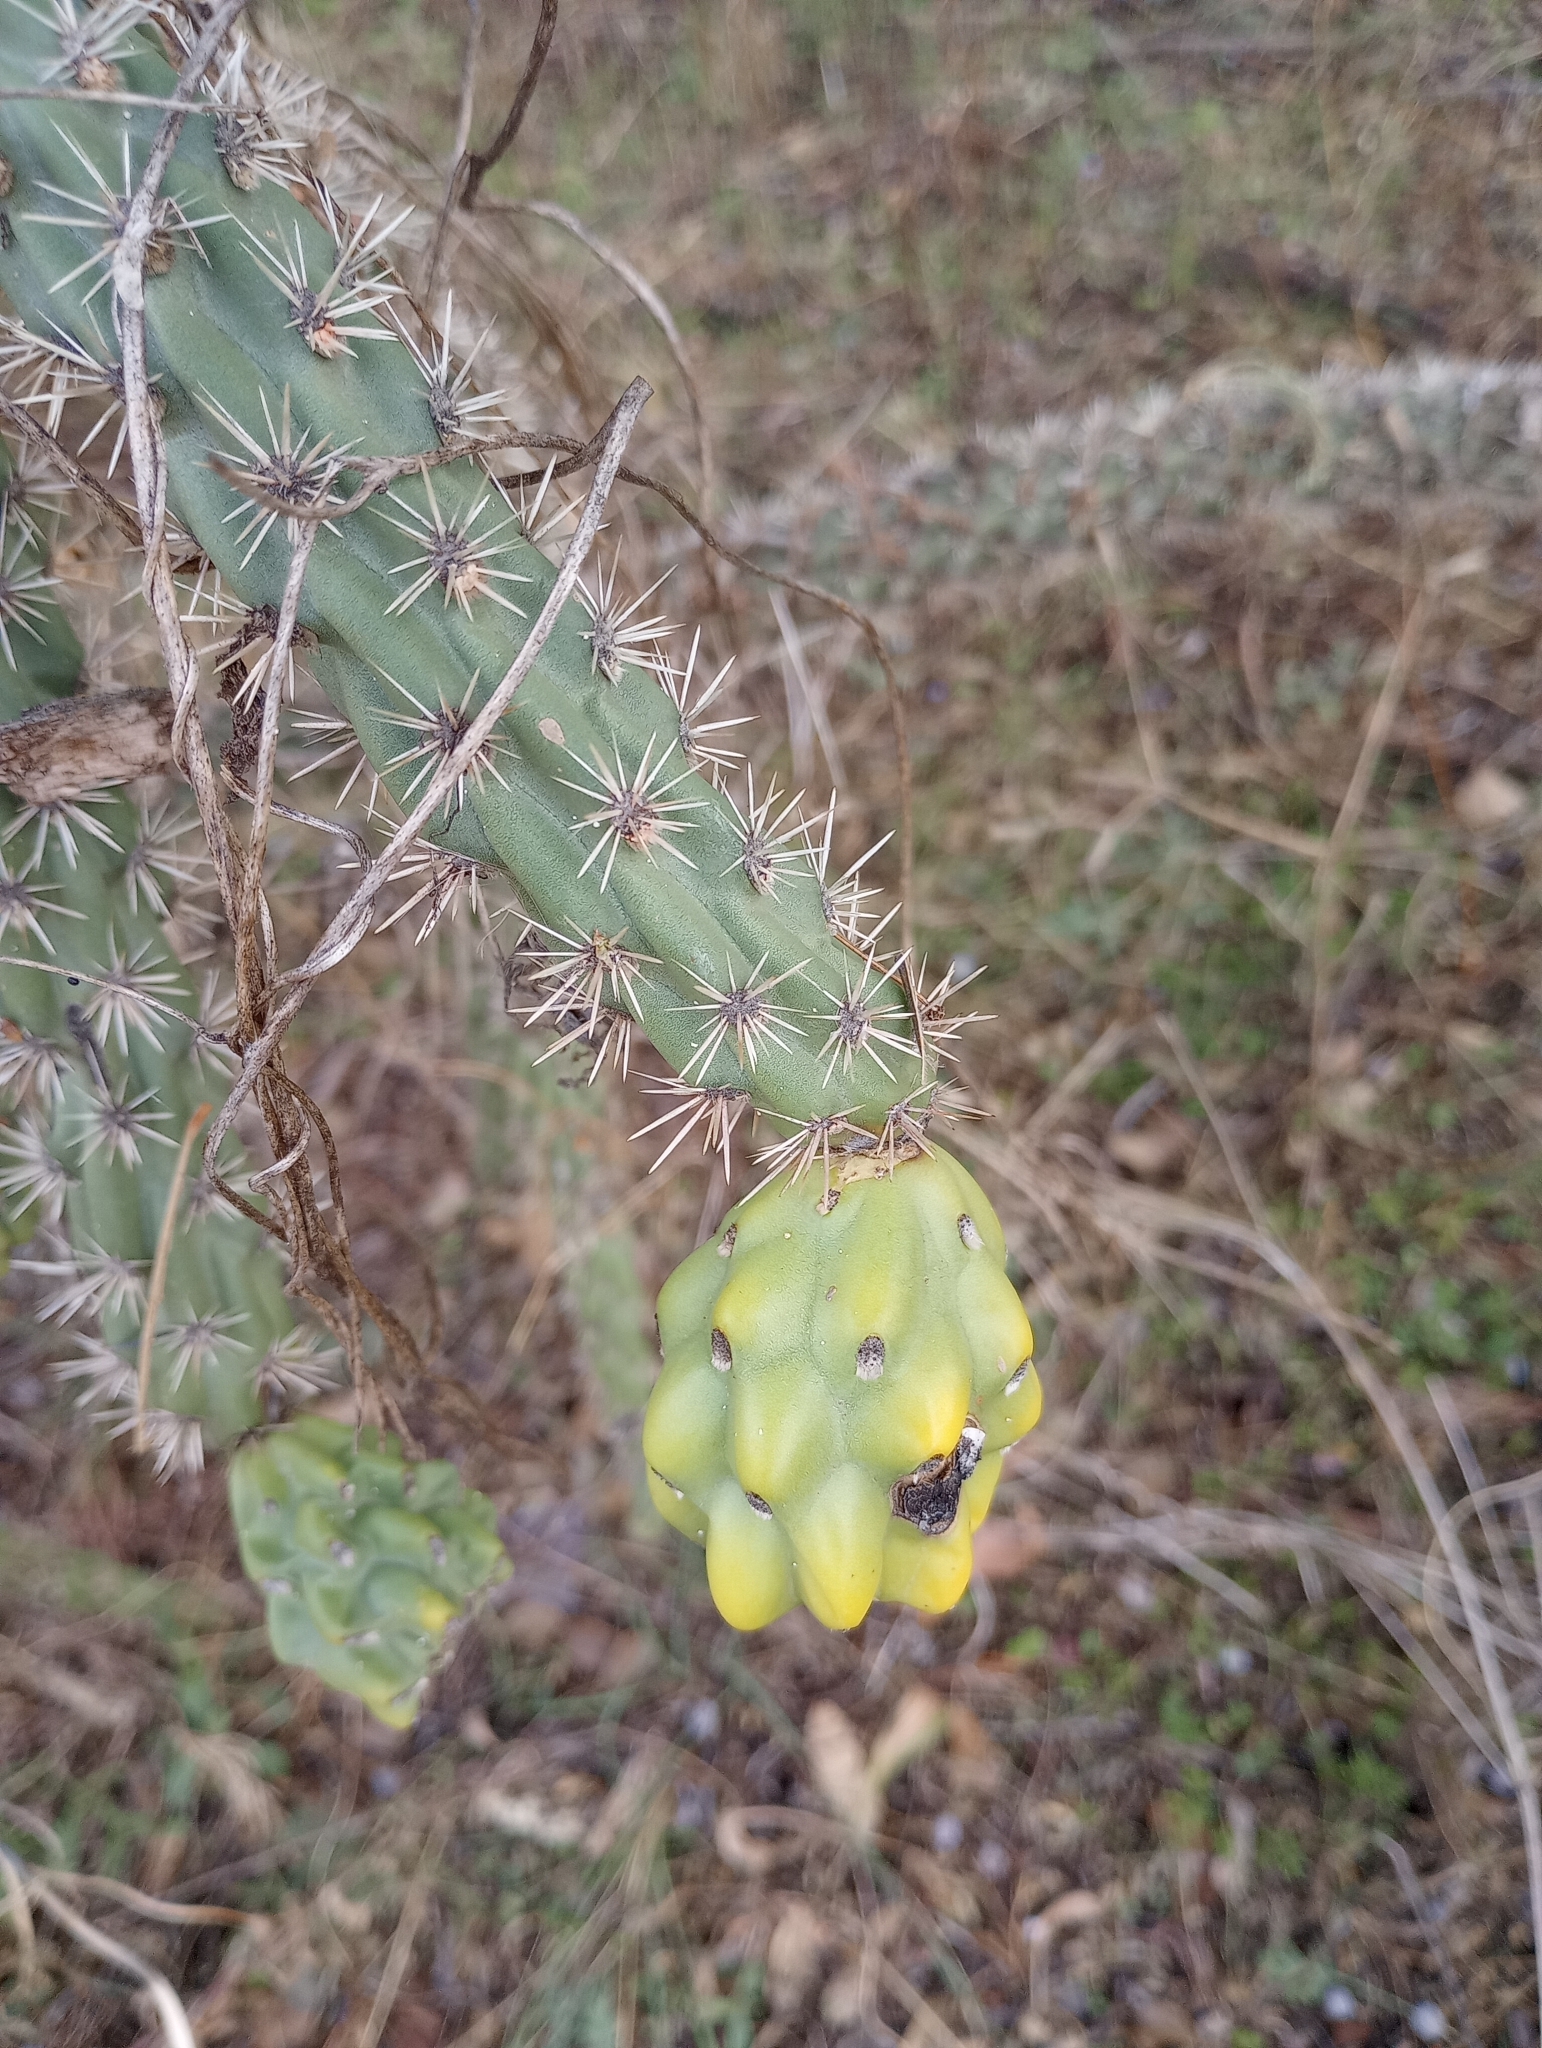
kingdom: Plantae
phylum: Tracheophyta
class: Magnoliopsida
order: Caryophyllales
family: Cactaceae
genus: Cylindropuntia
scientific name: Cylindropuntia imbricata
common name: Candelabrum cactus
